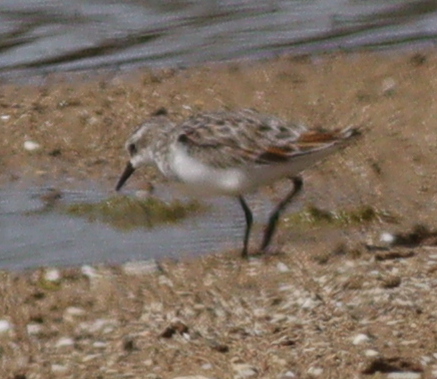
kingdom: Animalia
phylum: Chordata
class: Aves
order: Charadriiformes
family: Scolopacidae
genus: Calidris
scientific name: Calidris minuta
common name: Little stint
